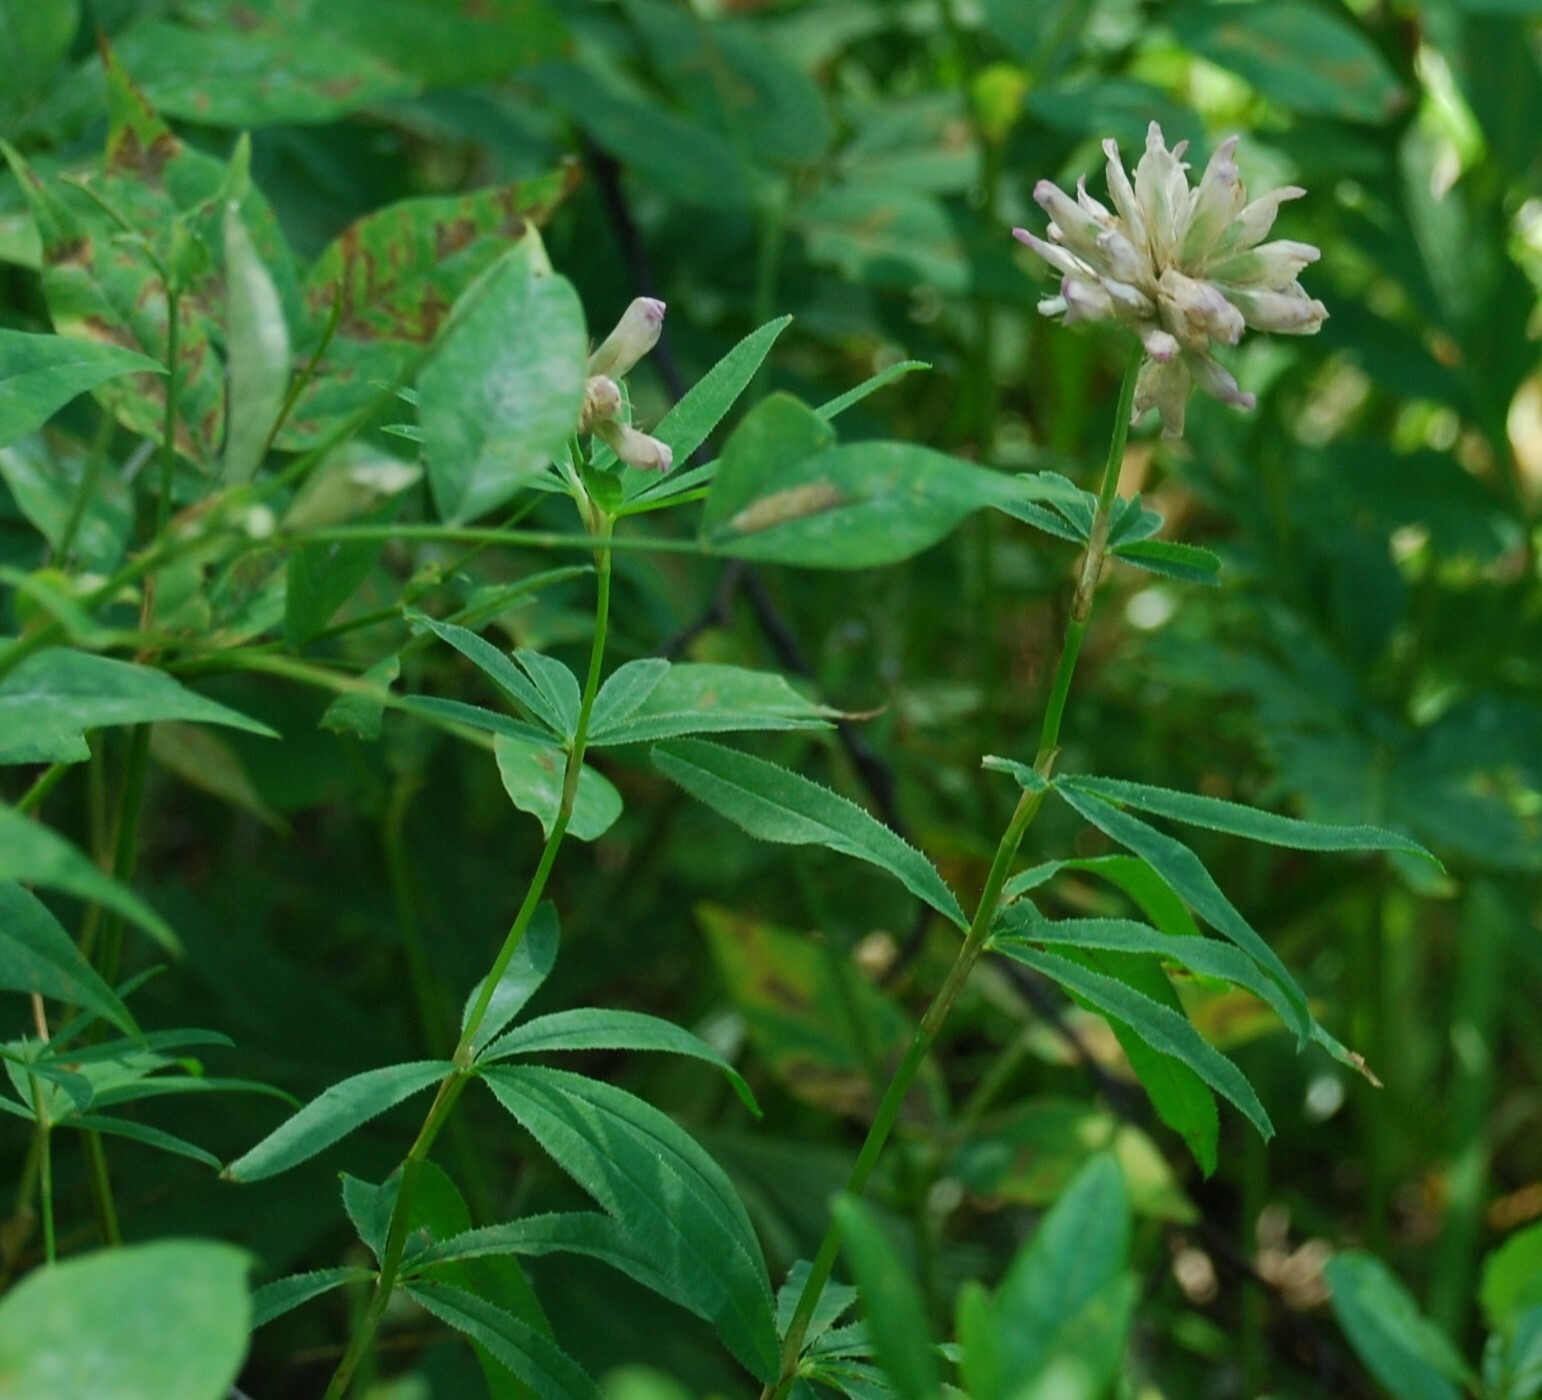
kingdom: Plantae
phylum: Tracheophyta
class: Magnoliopsida
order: Fabales
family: Fabaceae
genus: Trifolium
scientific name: Trifolium lupinaster
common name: Lupine clover
